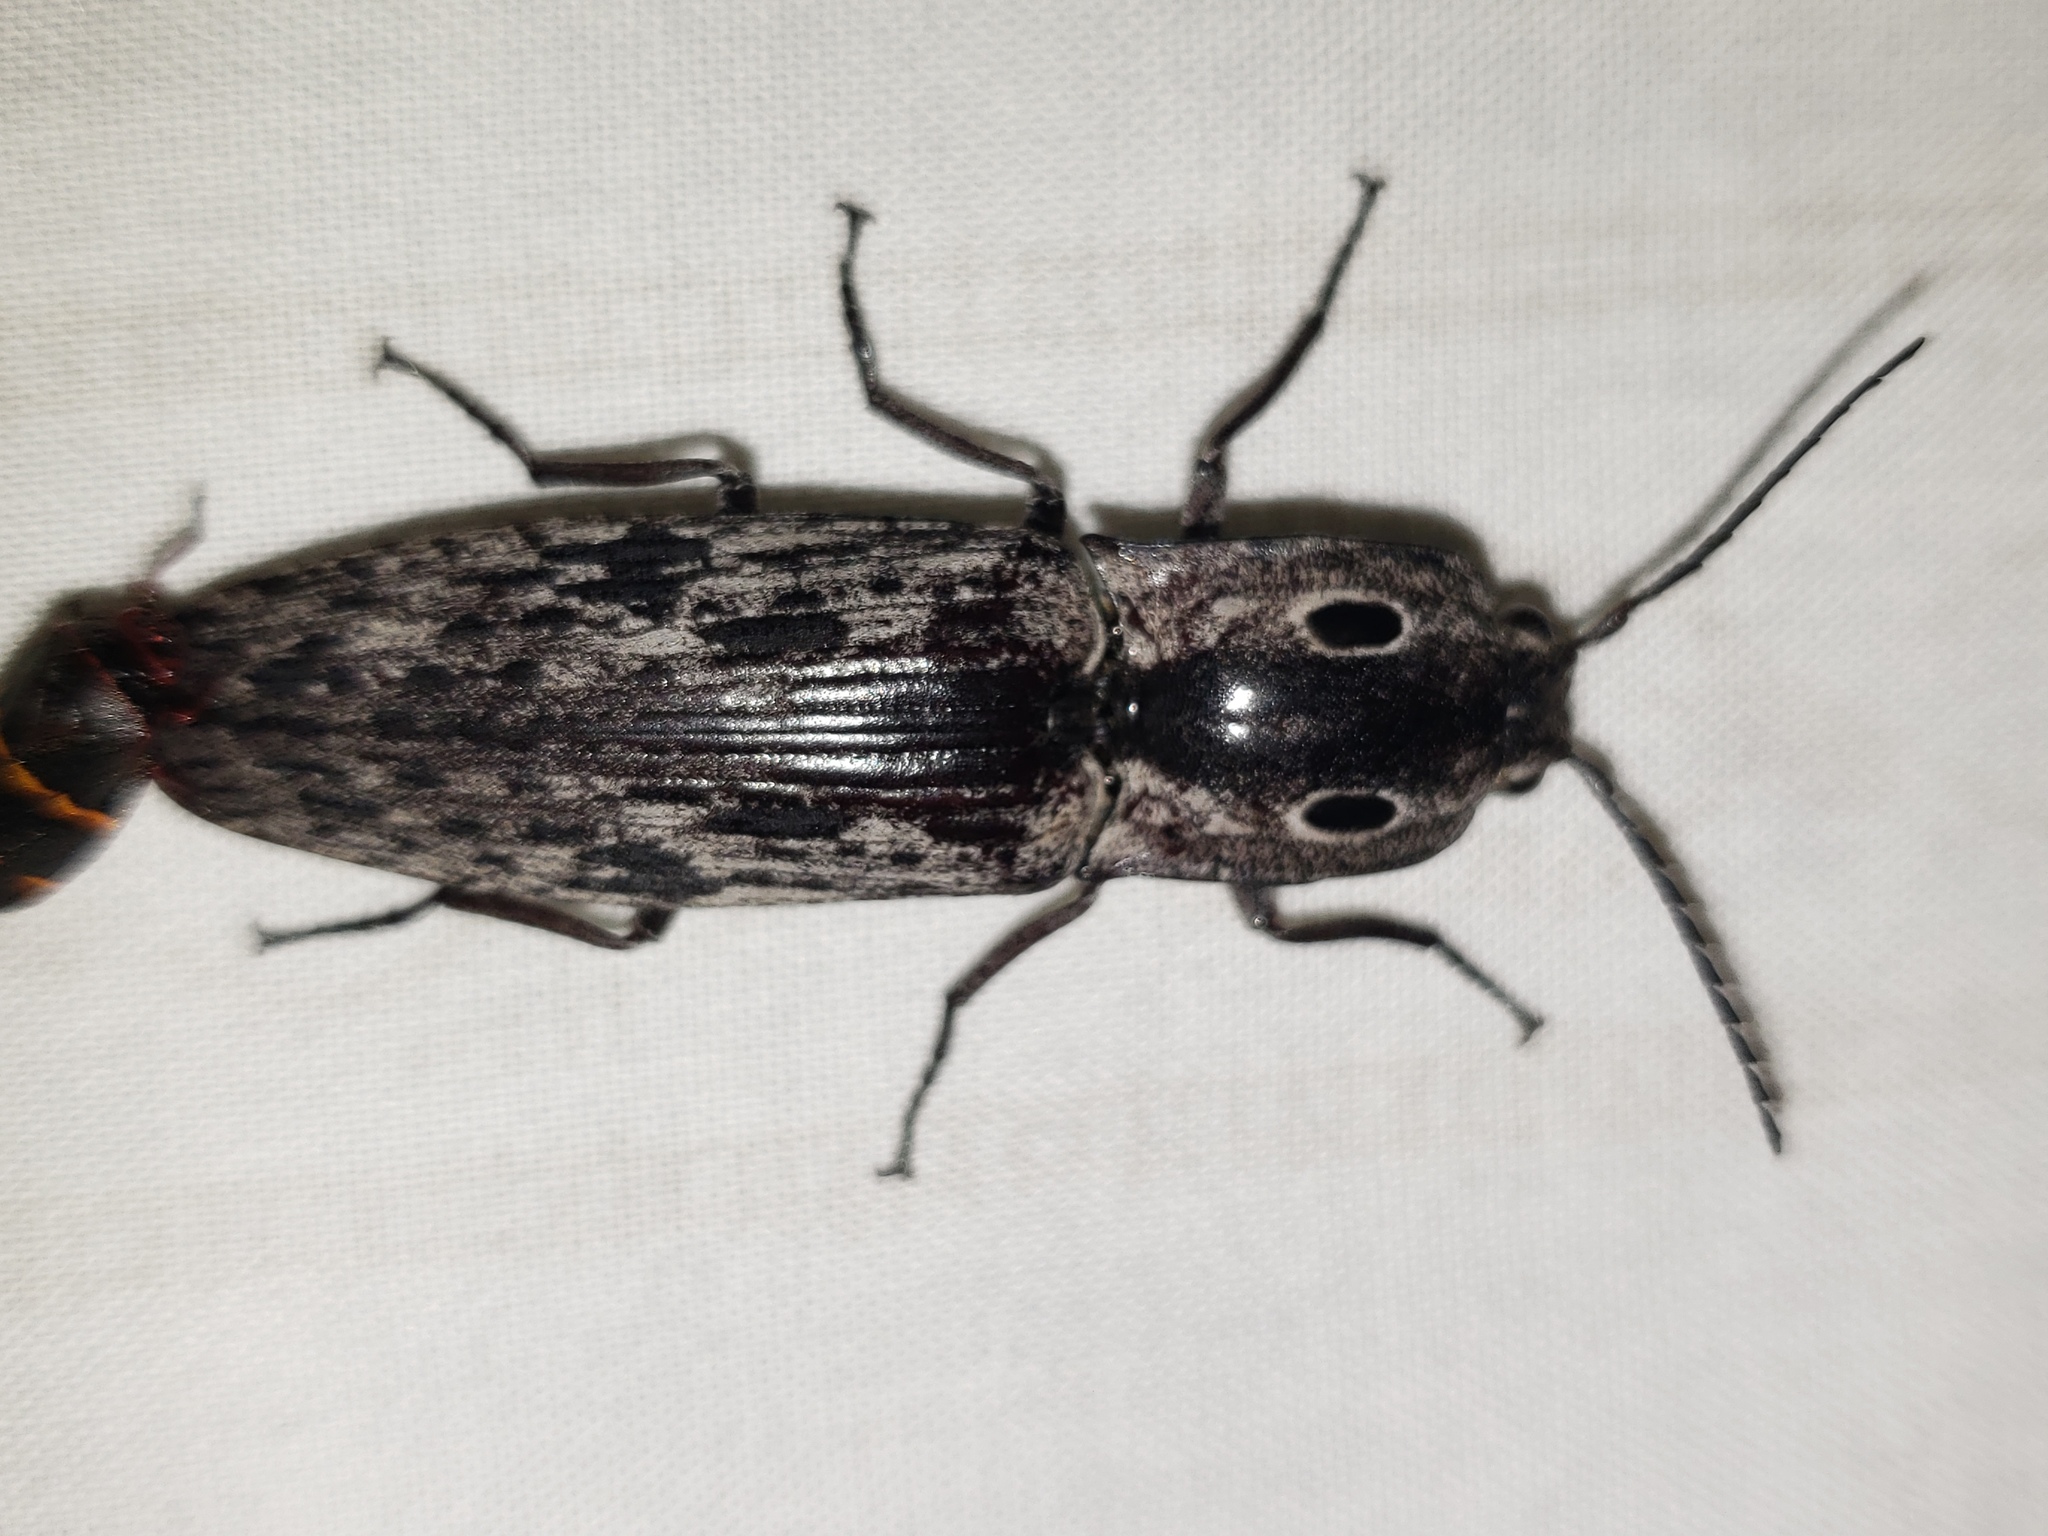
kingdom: Animalia
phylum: Arthropoda
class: Insecta
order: Coleoptera
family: Elateridae
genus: Alaus
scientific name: Alaus myops
